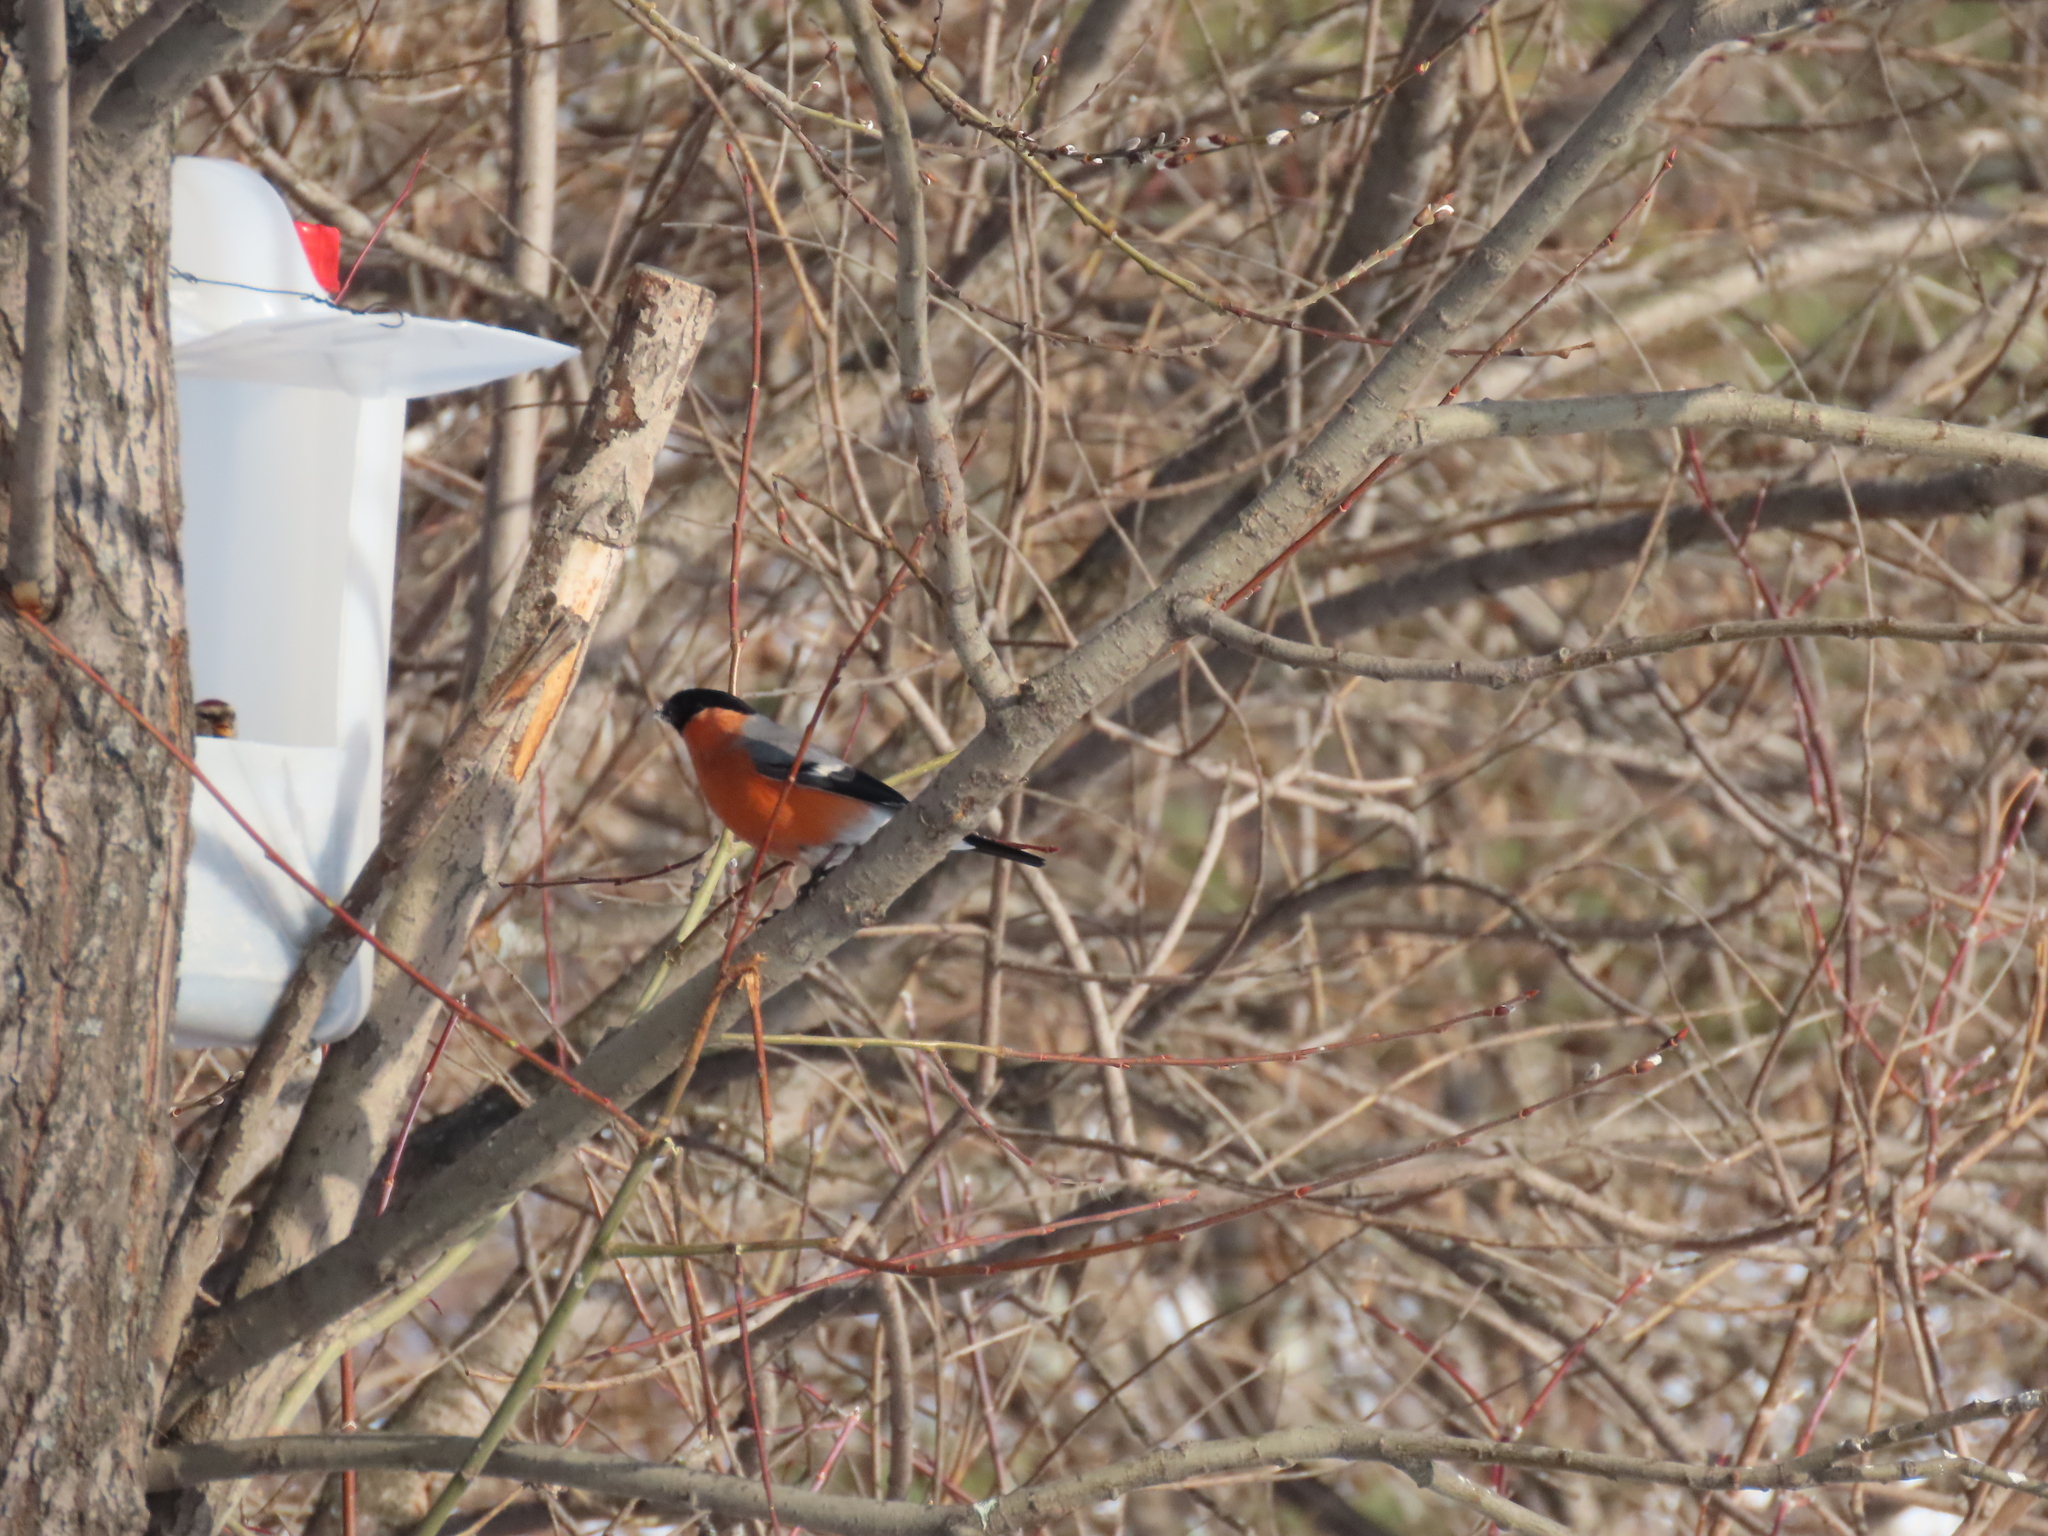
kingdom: Animalia
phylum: Chordata
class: Aves
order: Passeriformes
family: Fringillidae
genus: Pyrrhula
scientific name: Pyrrhula pyrrhula
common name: Eurasian bullfinch
